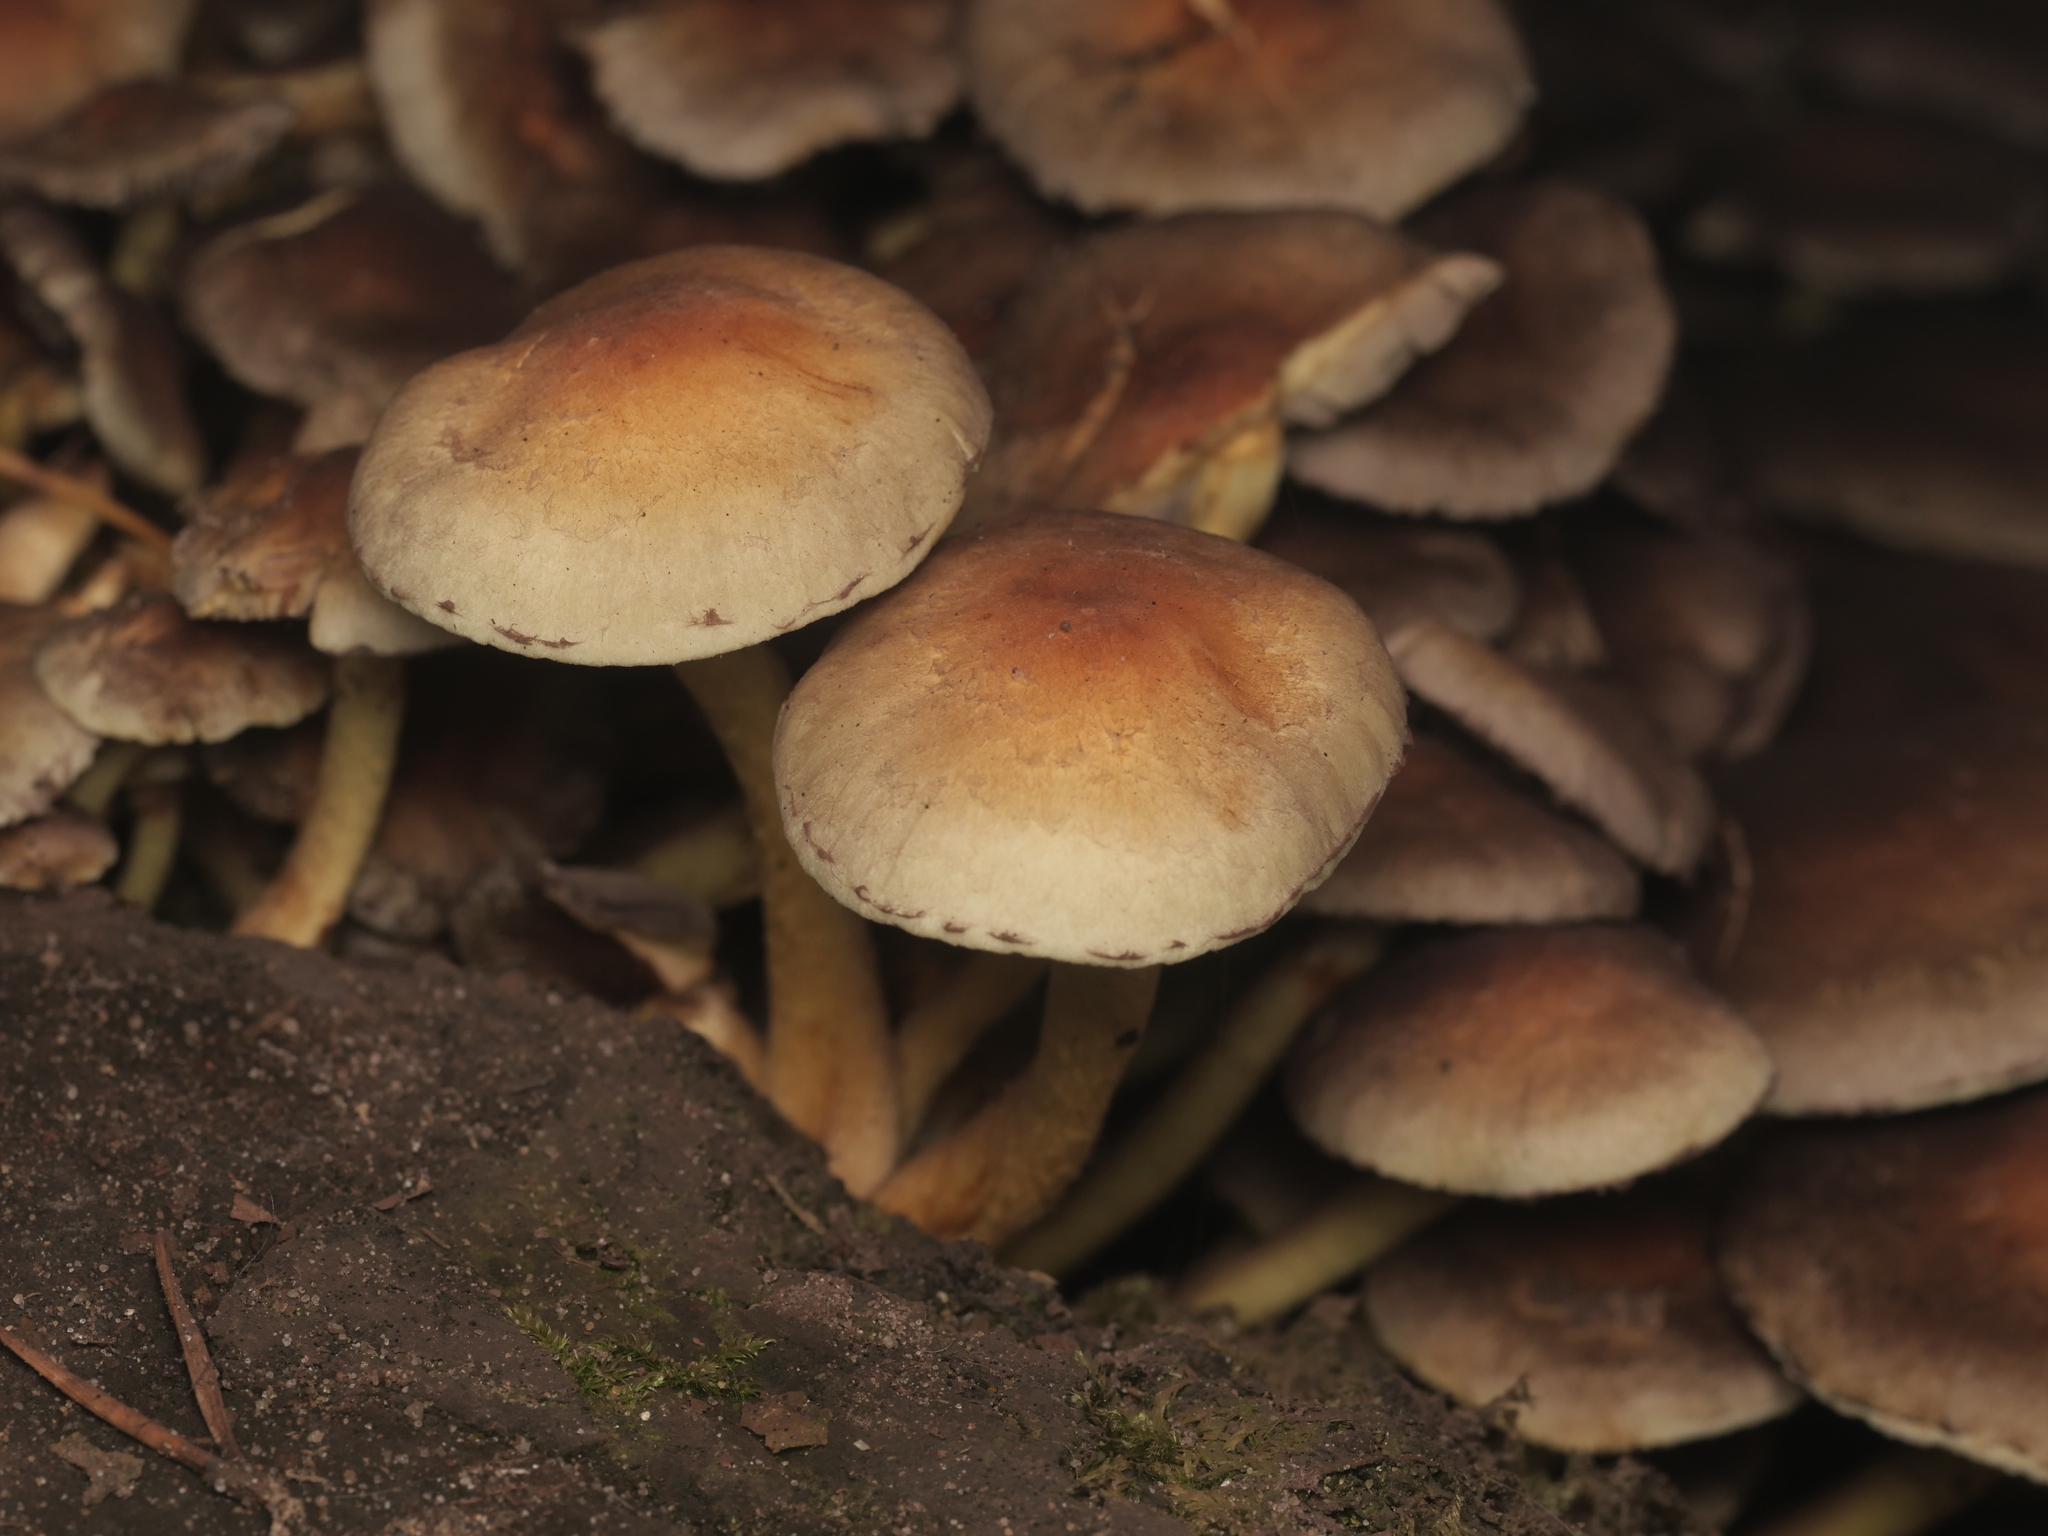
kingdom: Fungi
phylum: Basidiomycota
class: Agaricomycetes
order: Agaricales
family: Strophariaceae
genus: Hypholoma
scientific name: Hypholoma fasciculare
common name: Sulphur tuft
